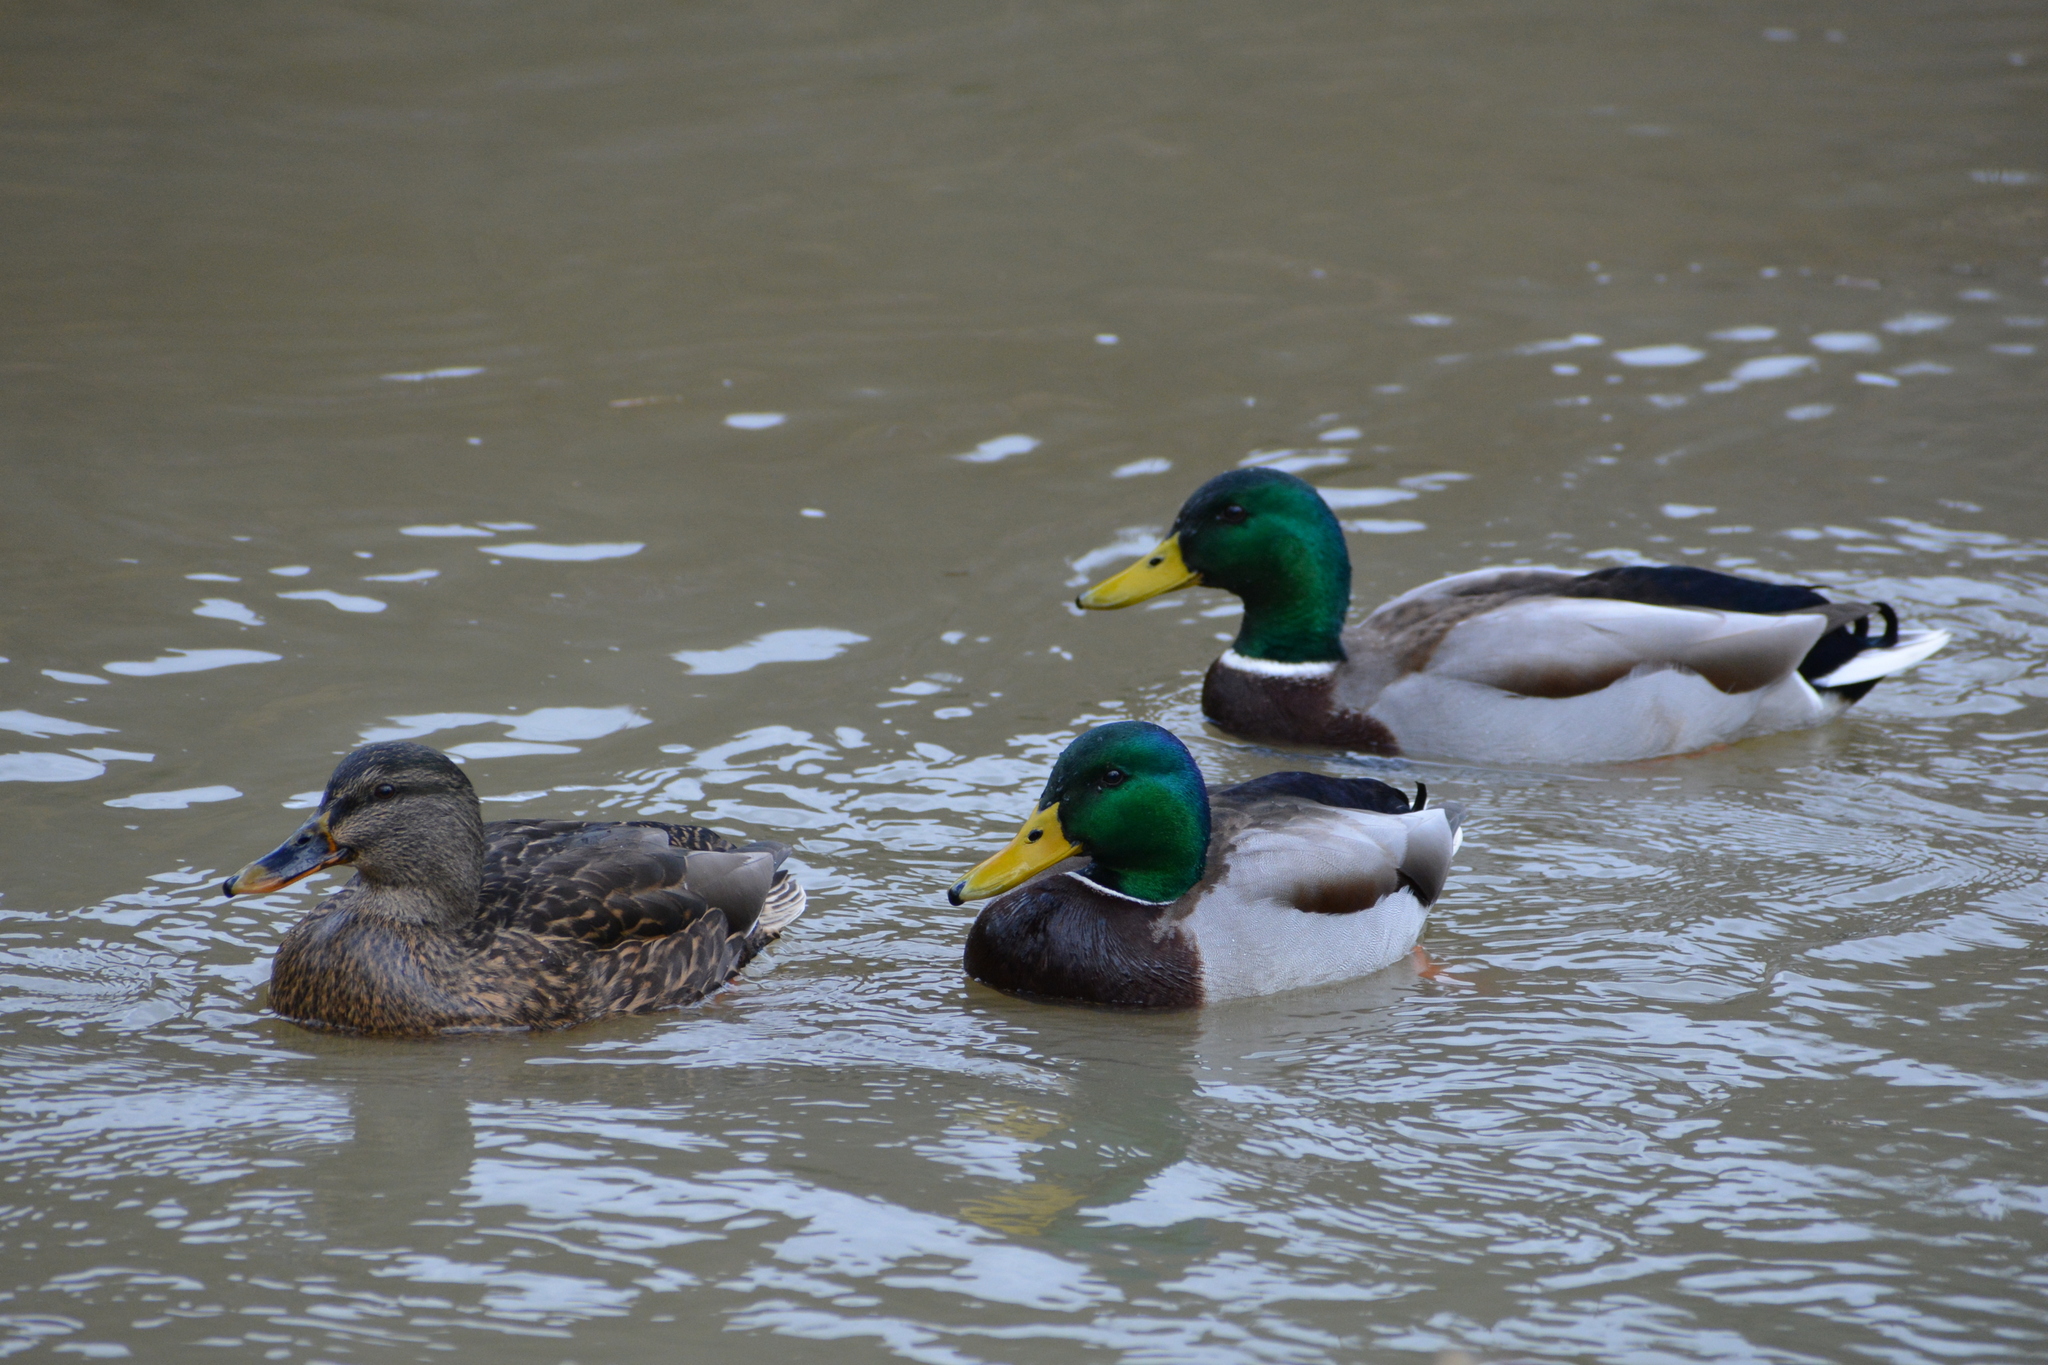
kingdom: Animalia
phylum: Chordata
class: Aves
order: Anseriformes
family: Anatidae
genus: Anas
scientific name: Anas platyrhynchos
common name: Mallard
